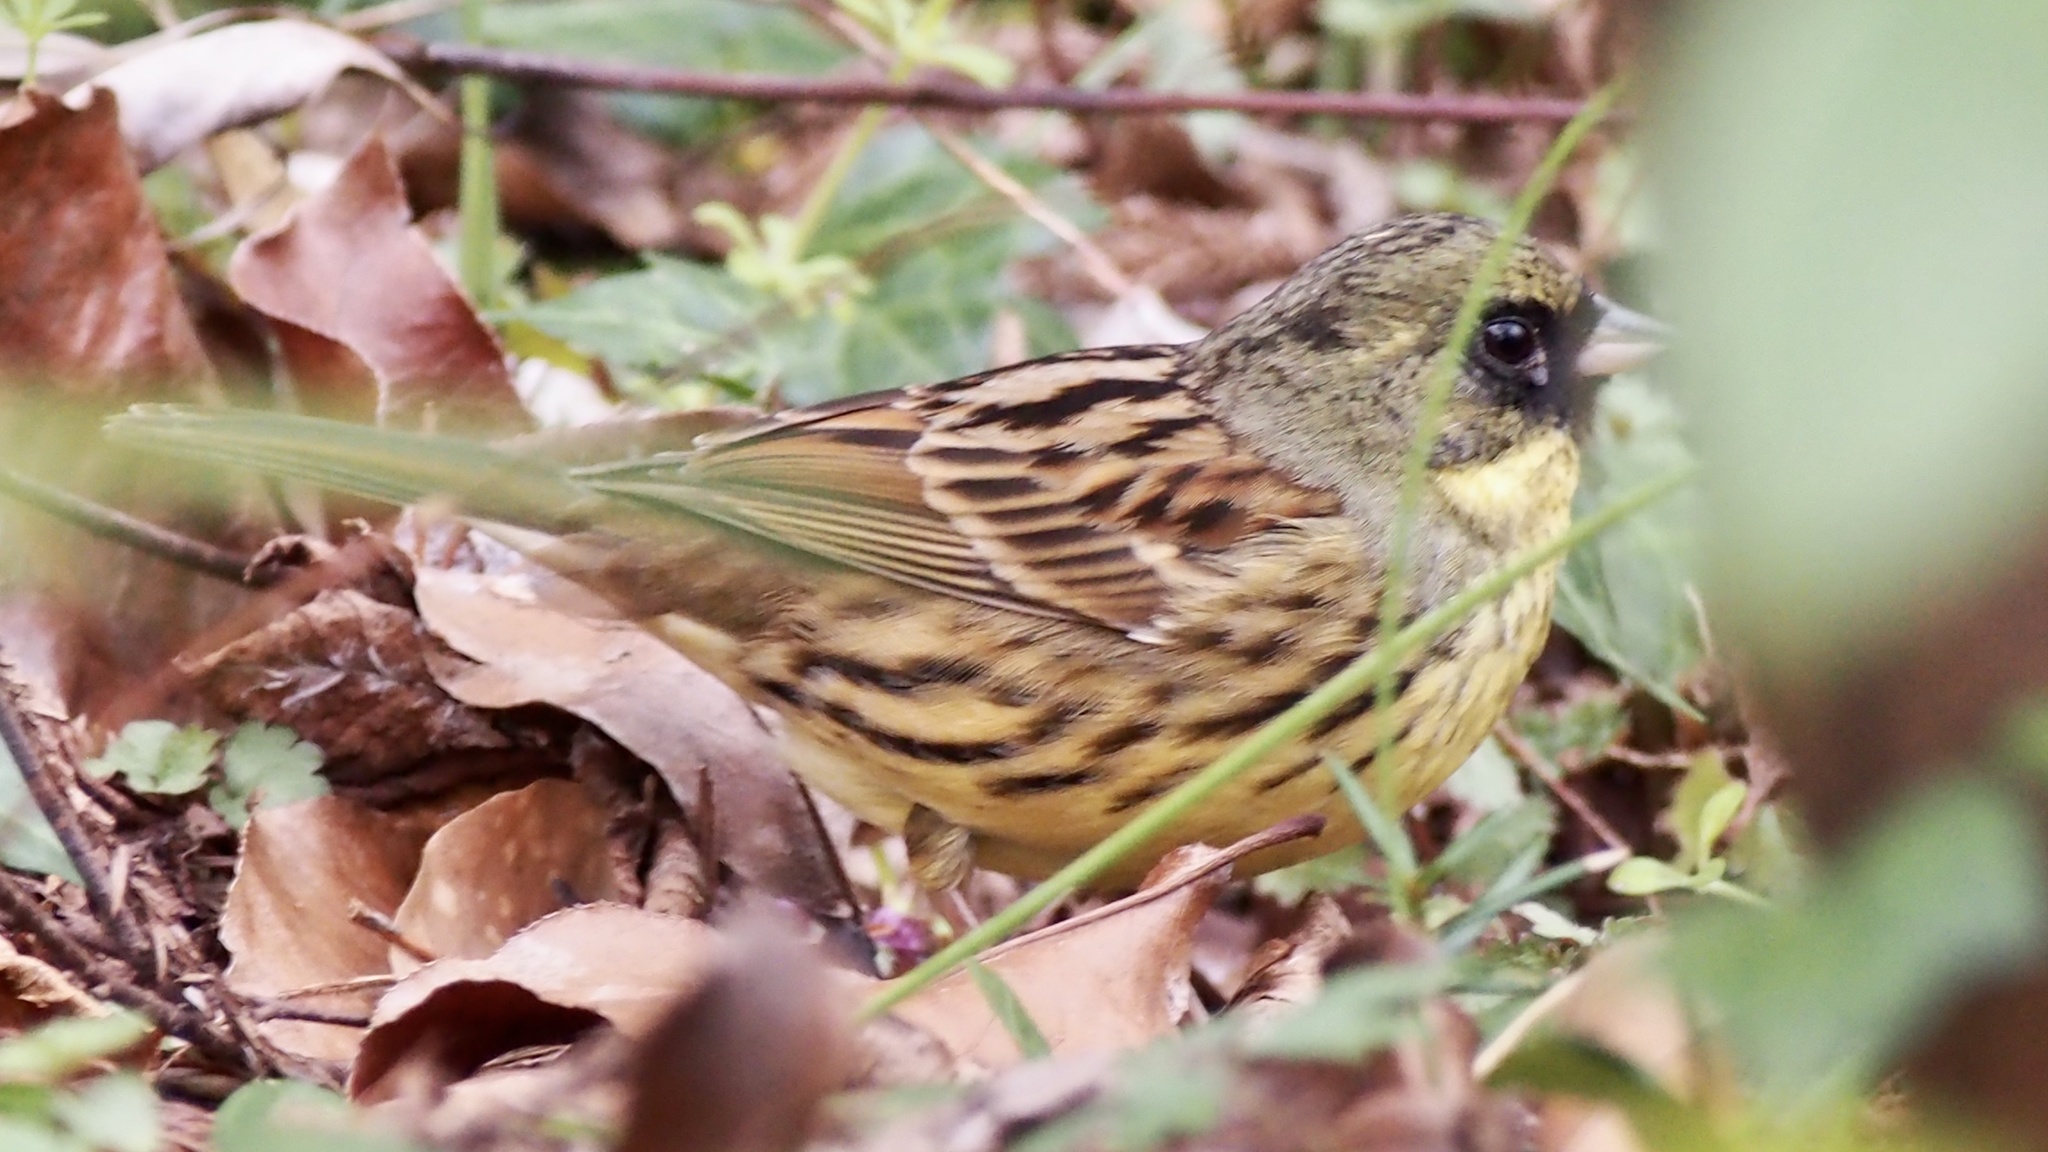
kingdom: Animalia
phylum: Chordata
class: Aves
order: Passeriformes
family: Emberizidae
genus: Emberiza
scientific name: Emberiza personata
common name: Masked bunting
